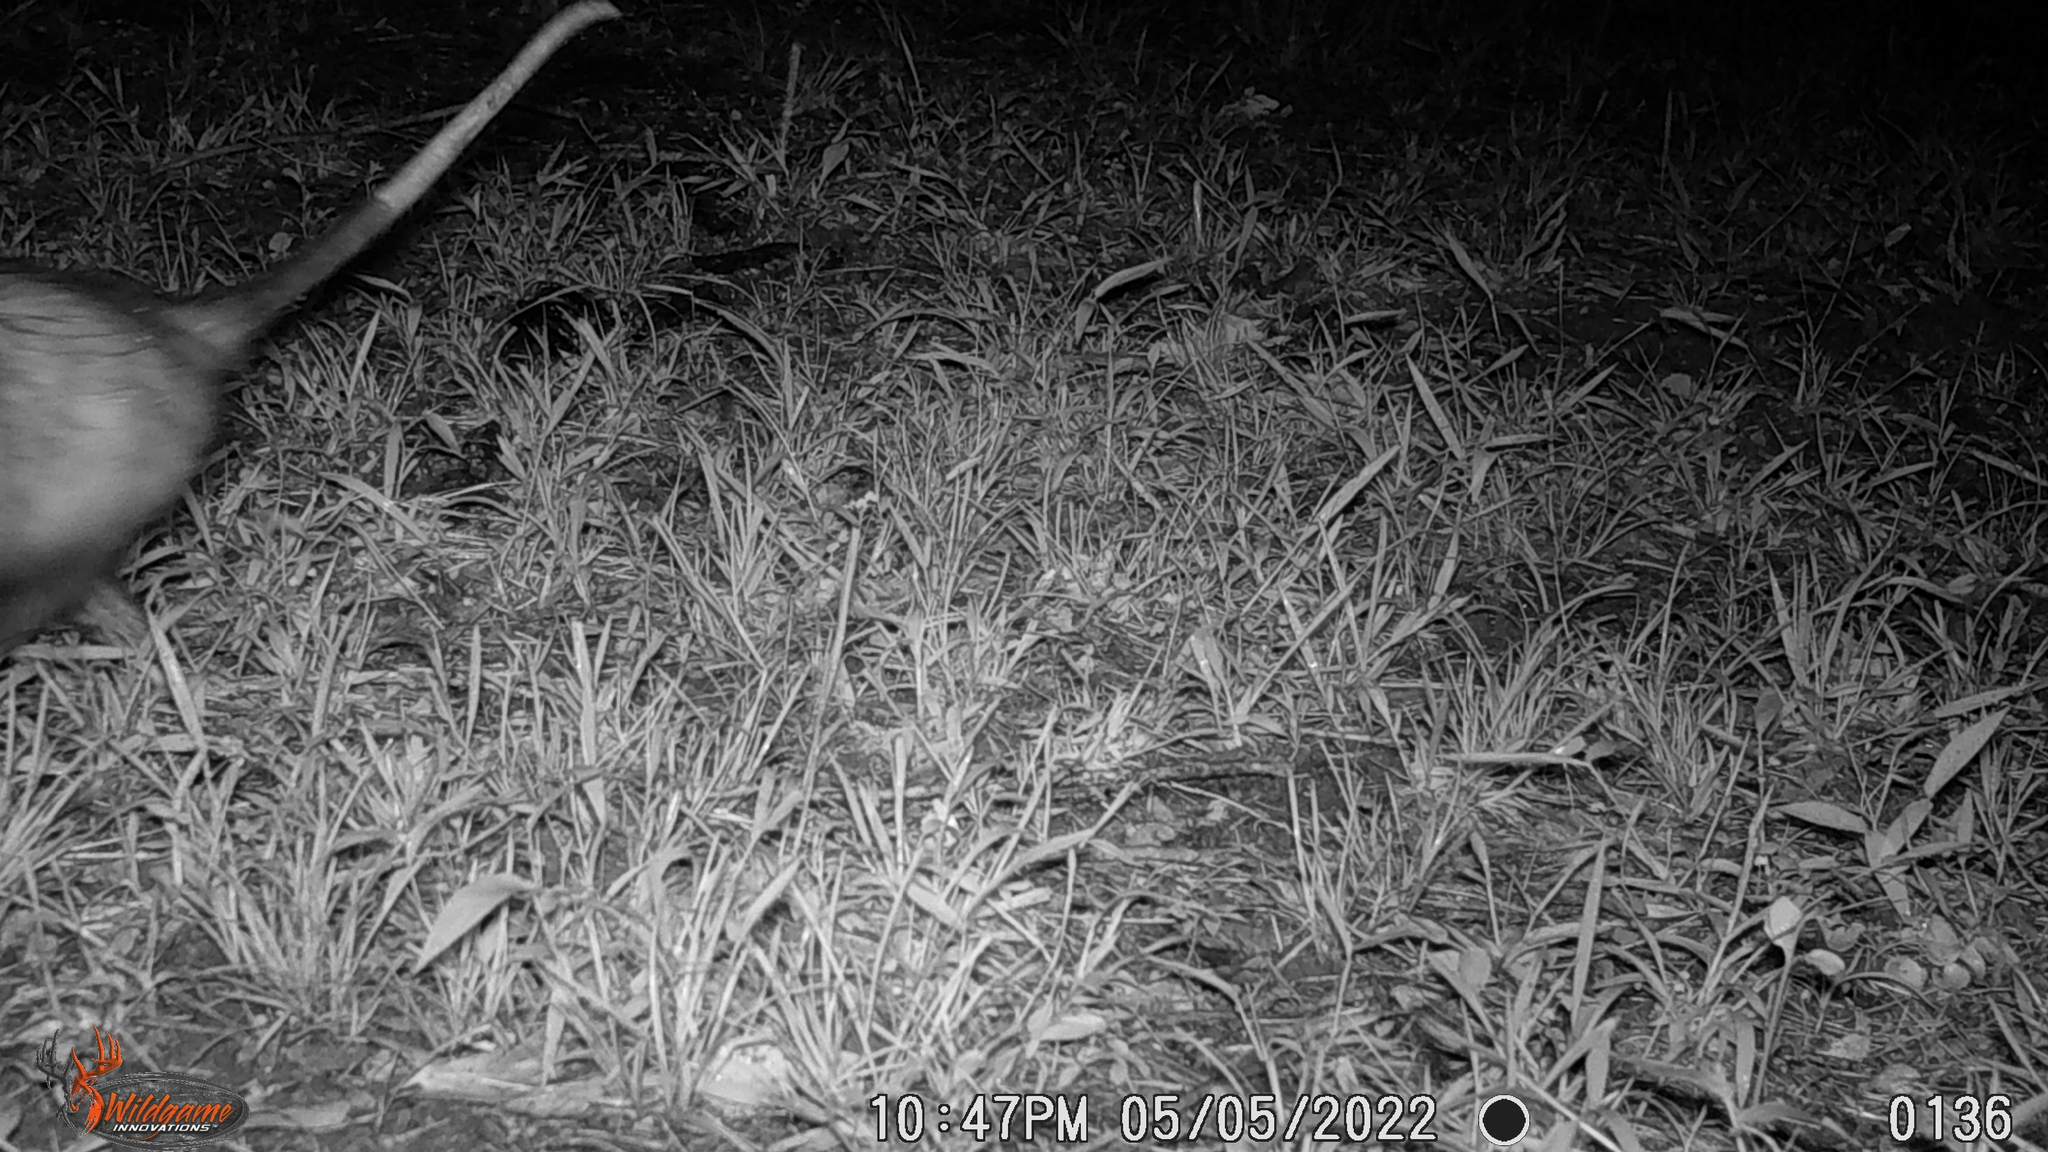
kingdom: Animalia
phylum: Chordata
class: Mammalia
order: Didelphimorphia
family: Didelphidae
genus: Didelphis
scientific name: Didelphis virginiana
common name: Virginia opossum
